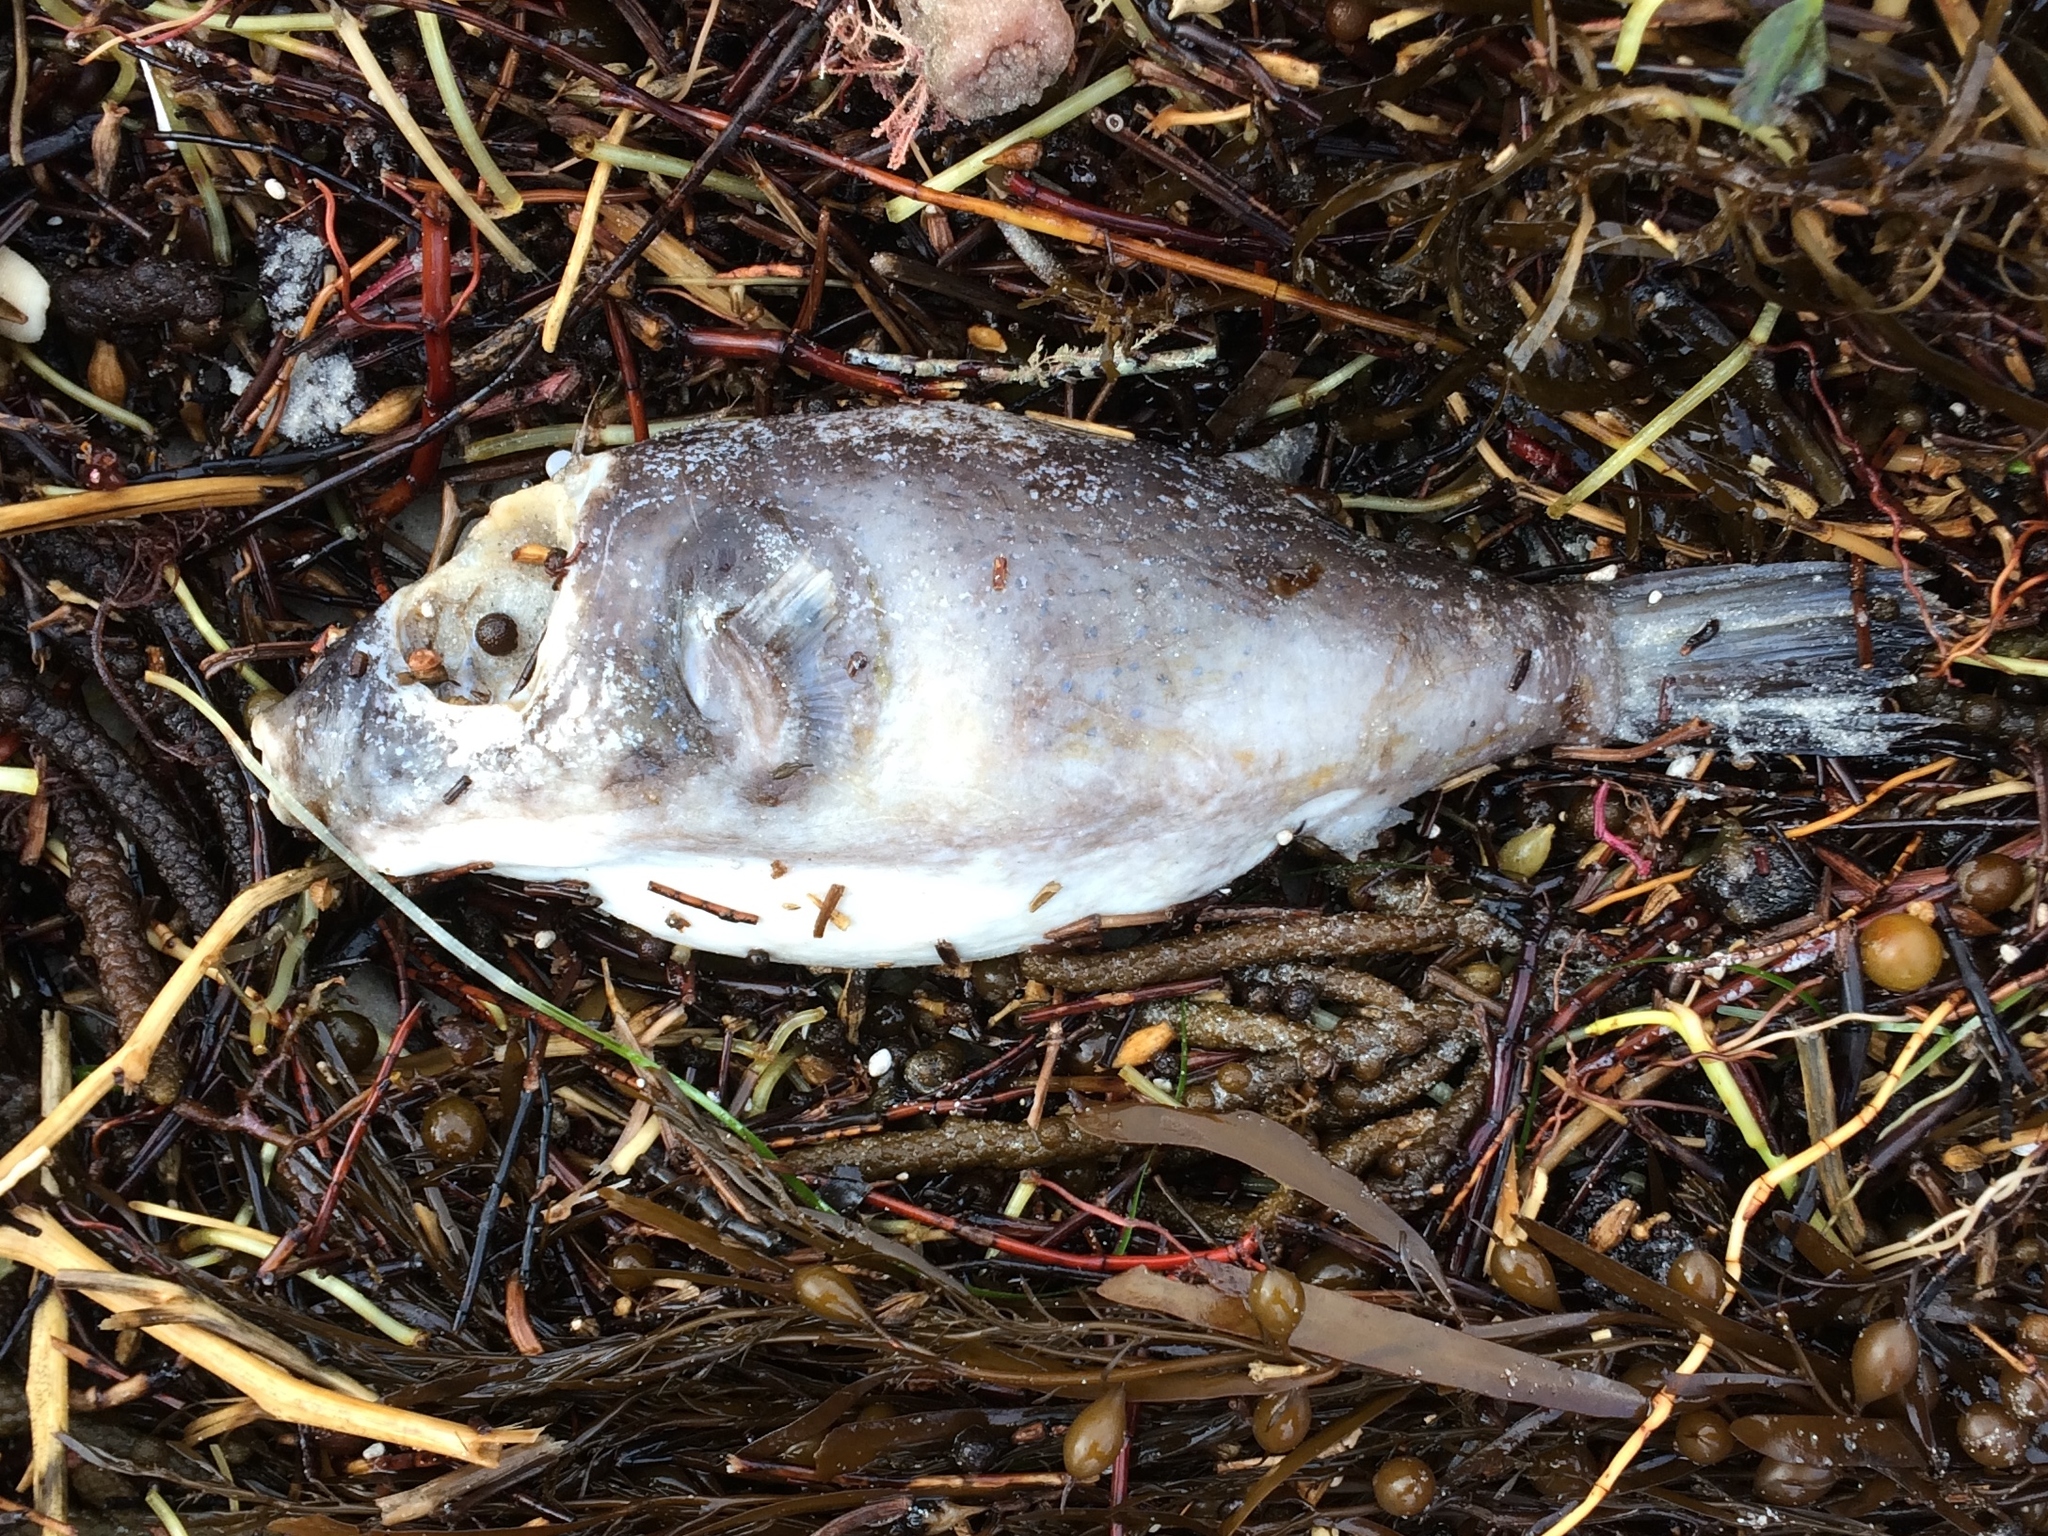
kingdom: Animalia
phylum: Chordata
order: Tetraodontiformes
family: Tetraodontidae
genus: Omegophora
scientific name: Omegophora armilla
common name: Ringed pufferfish
